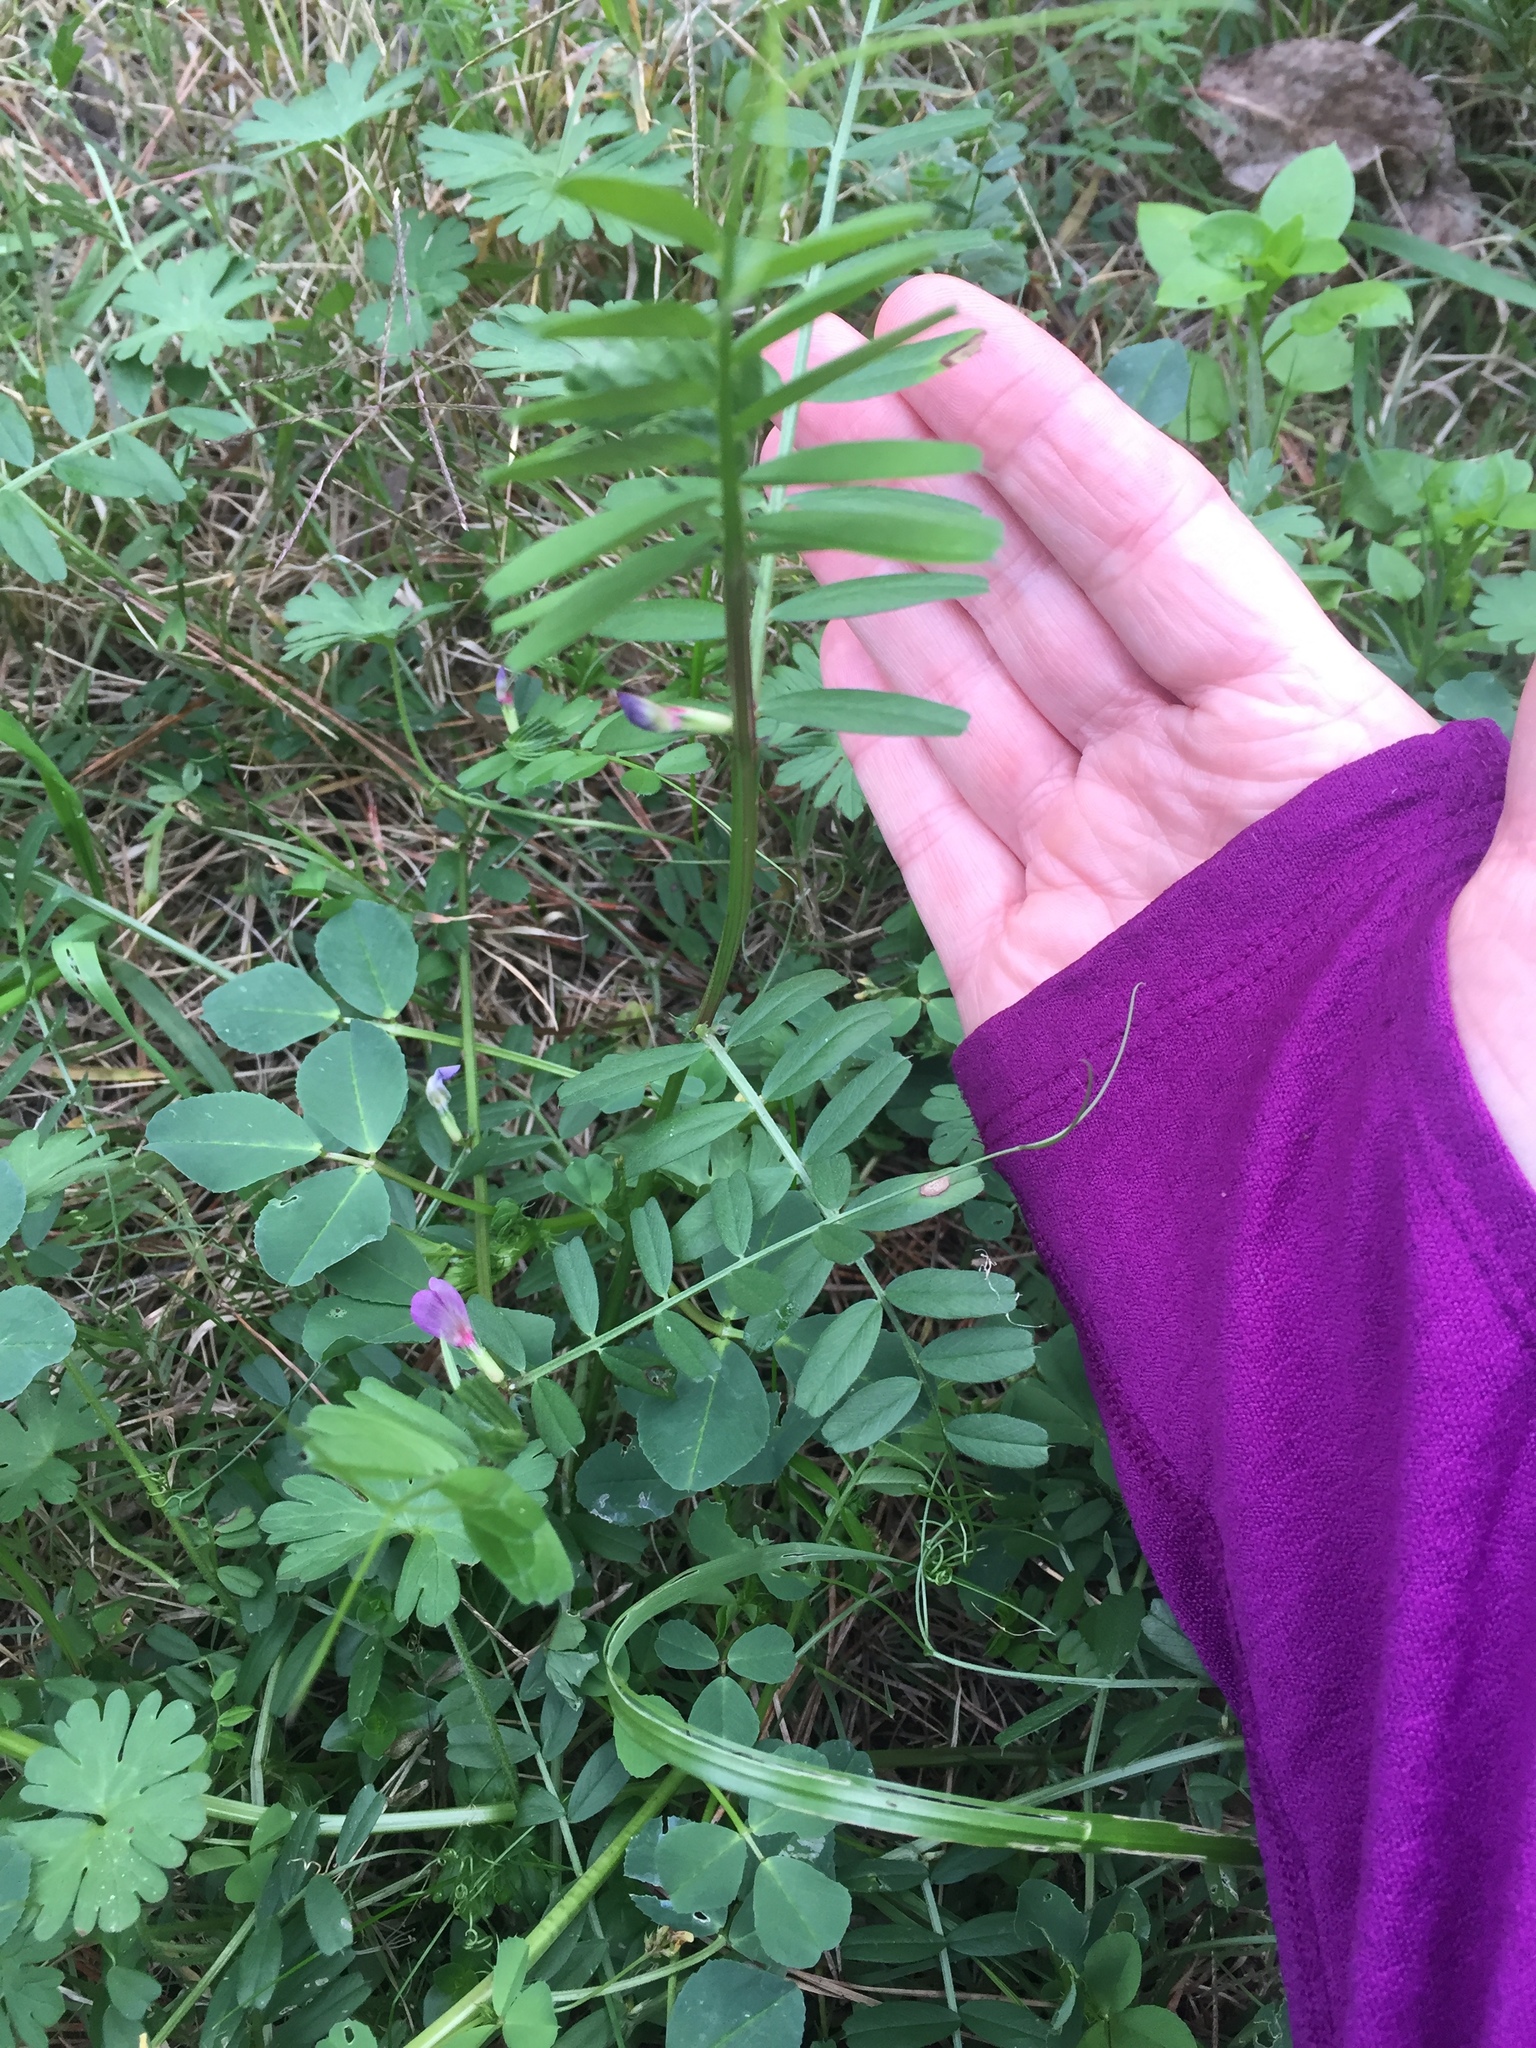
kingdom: Plantae
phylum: Tracheophyta
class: Magnoliopsida
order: Fabales
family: Fabaceae
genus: Vicia
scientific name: Vicia sativa
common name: Garden vetch
